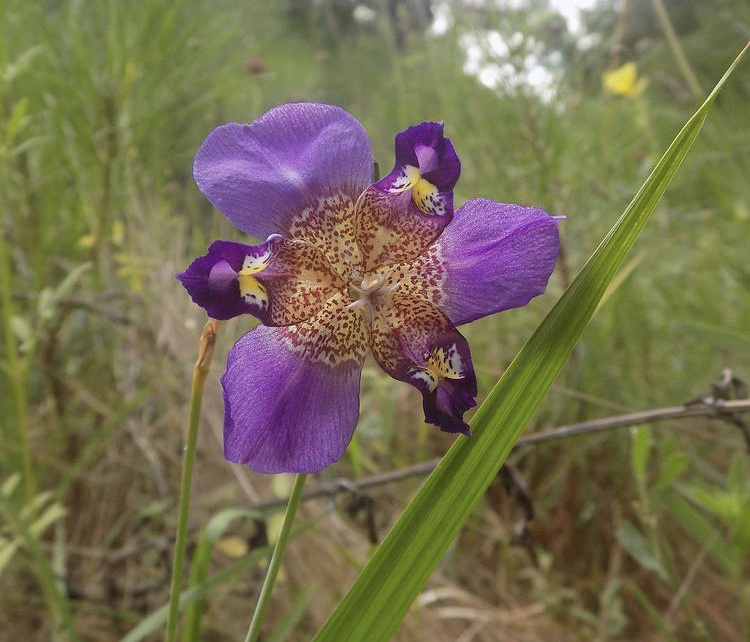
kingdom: Plantae
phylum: Tracheophyta
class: Liliopsida
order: Asparagales
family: Iridaceae
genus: Alophia
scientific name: Alophia drummondii
